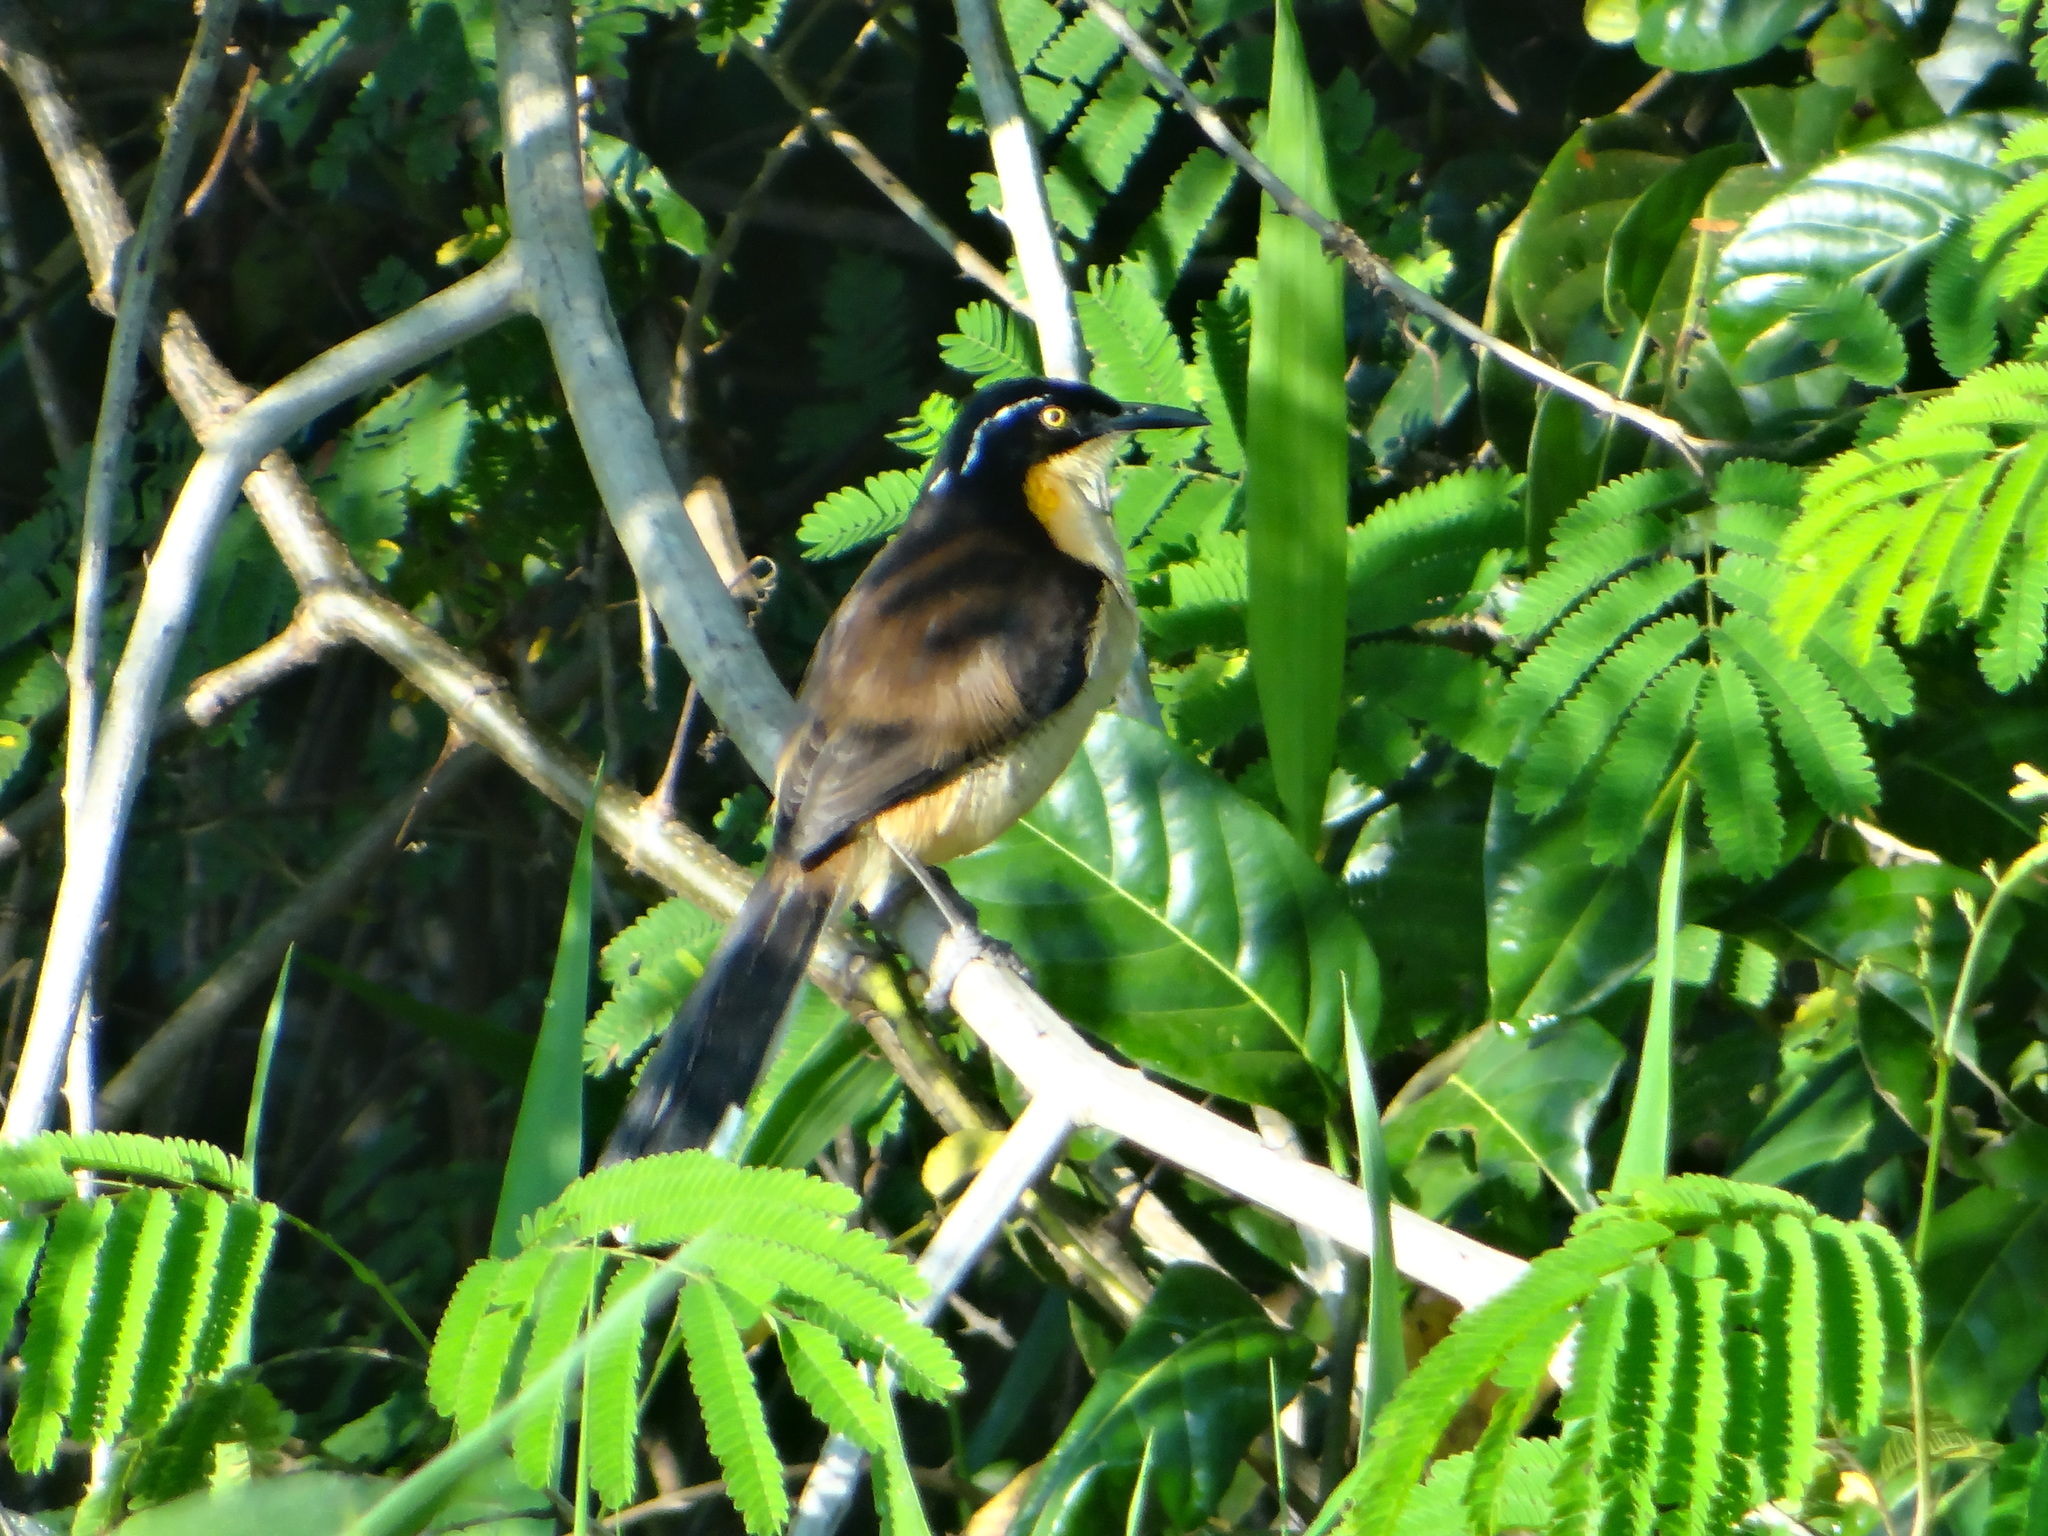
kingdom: Animalia
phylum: Chordata
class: Aves
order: Passeriformes
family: Donacobiidae
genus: Donacobius
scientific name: Donacobius atricapilla
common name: Black-capped donacobius
